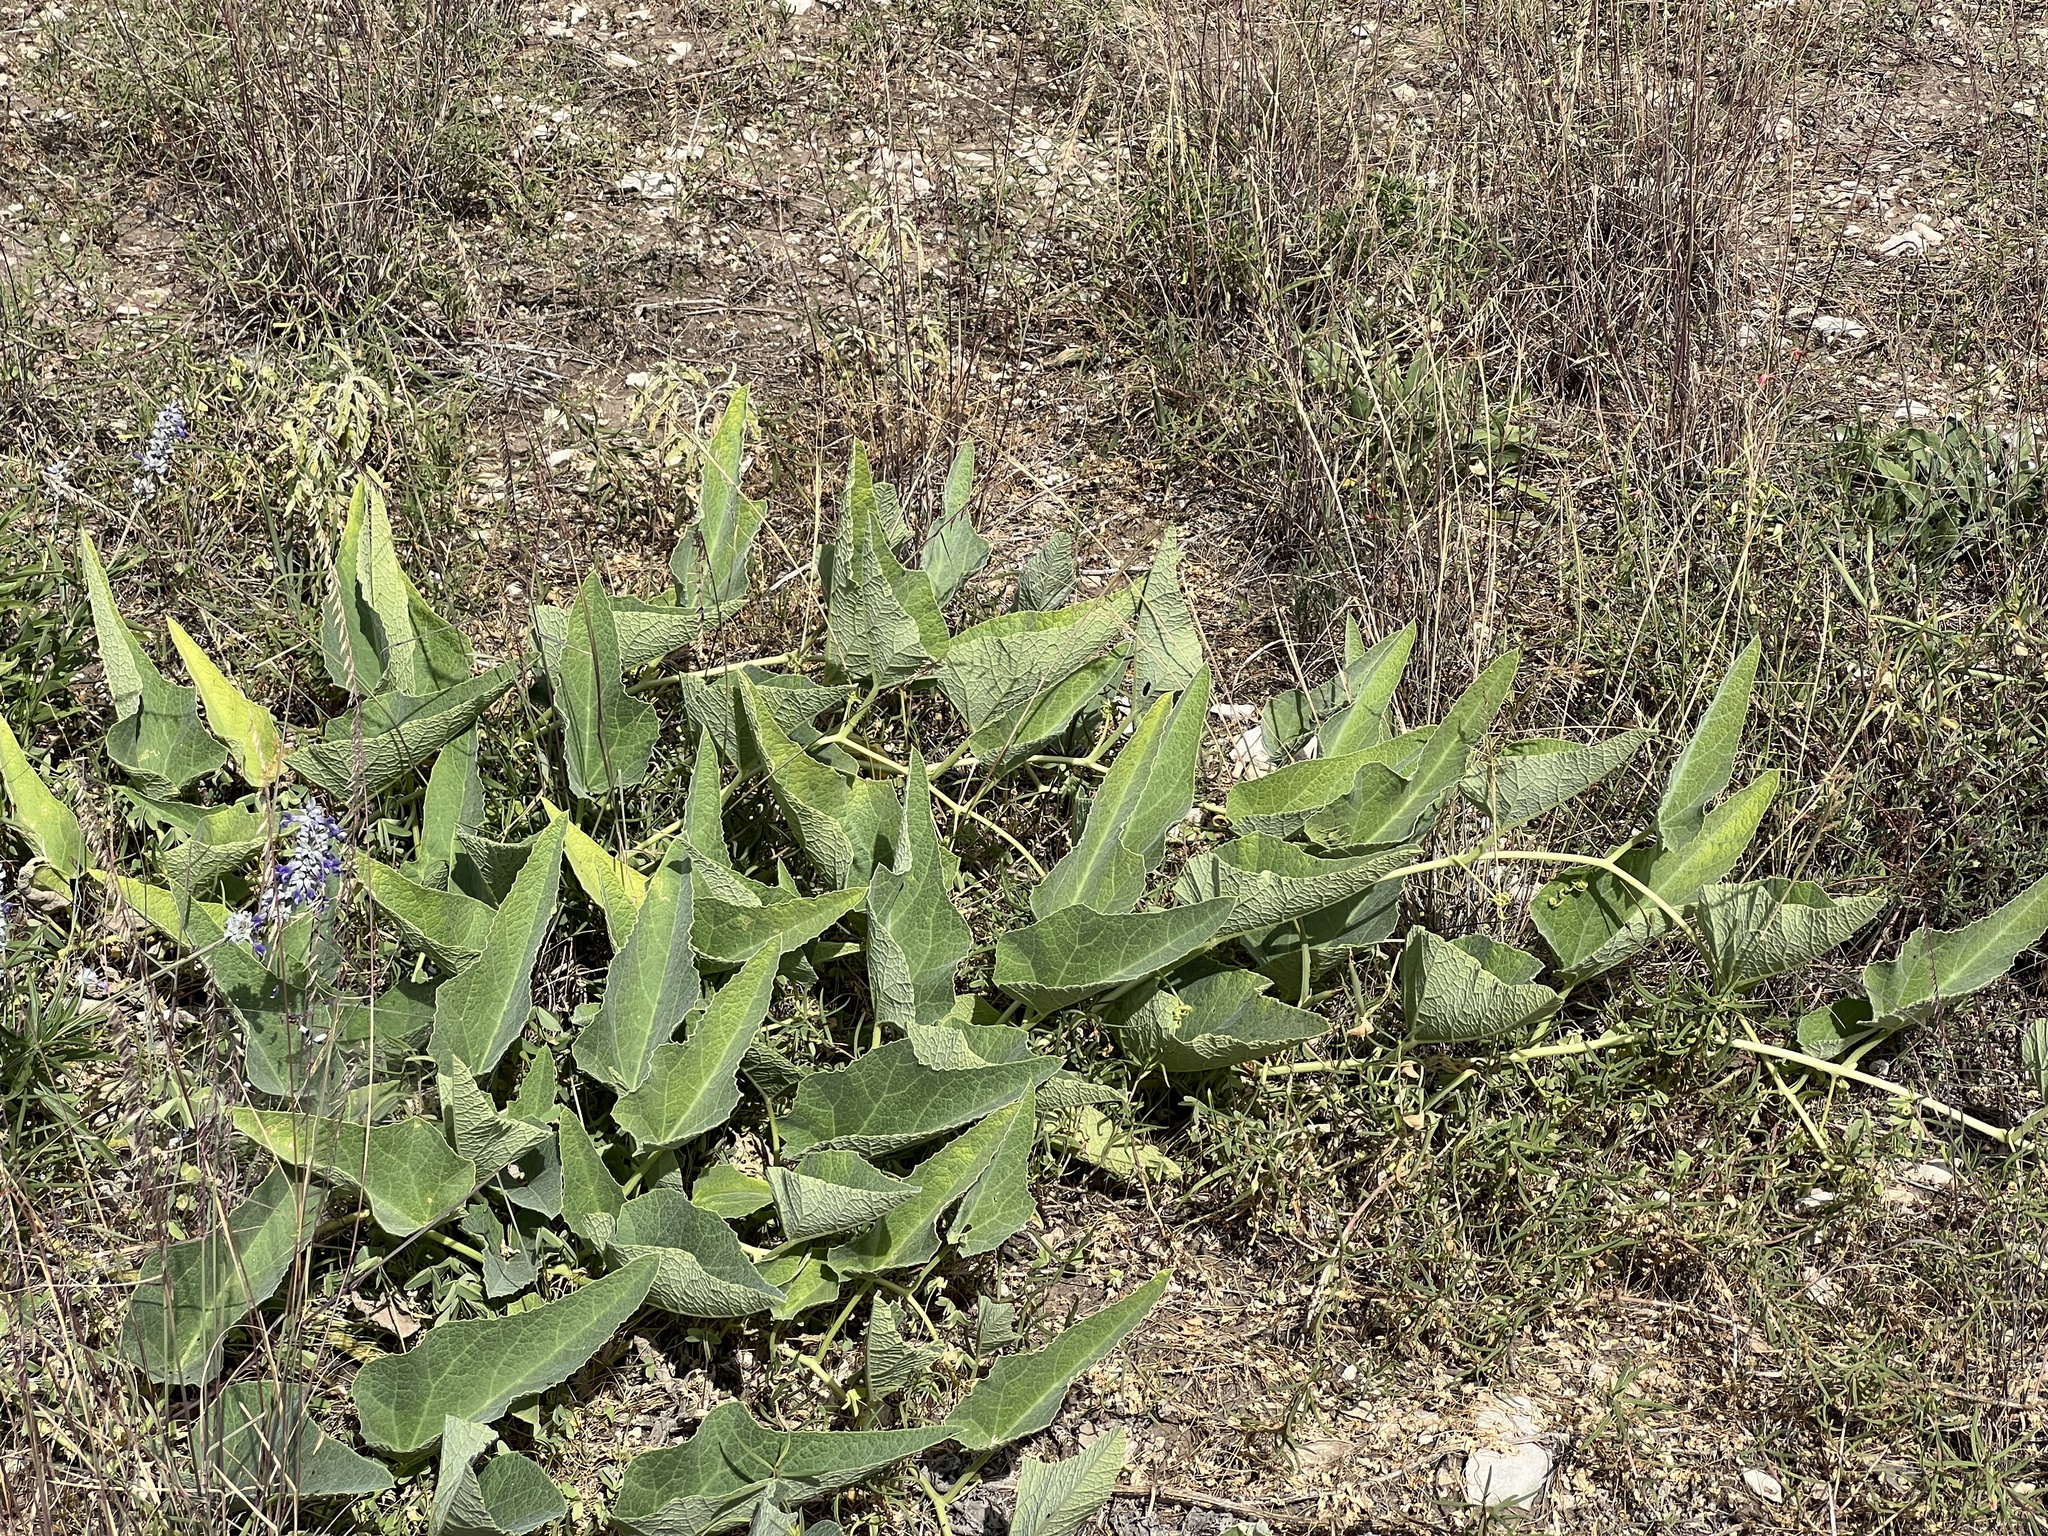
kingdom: Plantae
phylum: Tracheophyta
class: Magnoliopsida
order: Cucurbitales
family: Cucurbitaceae
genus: Cucurbita
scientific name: Cucurbita foetidissima
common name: Buffalo gourd
